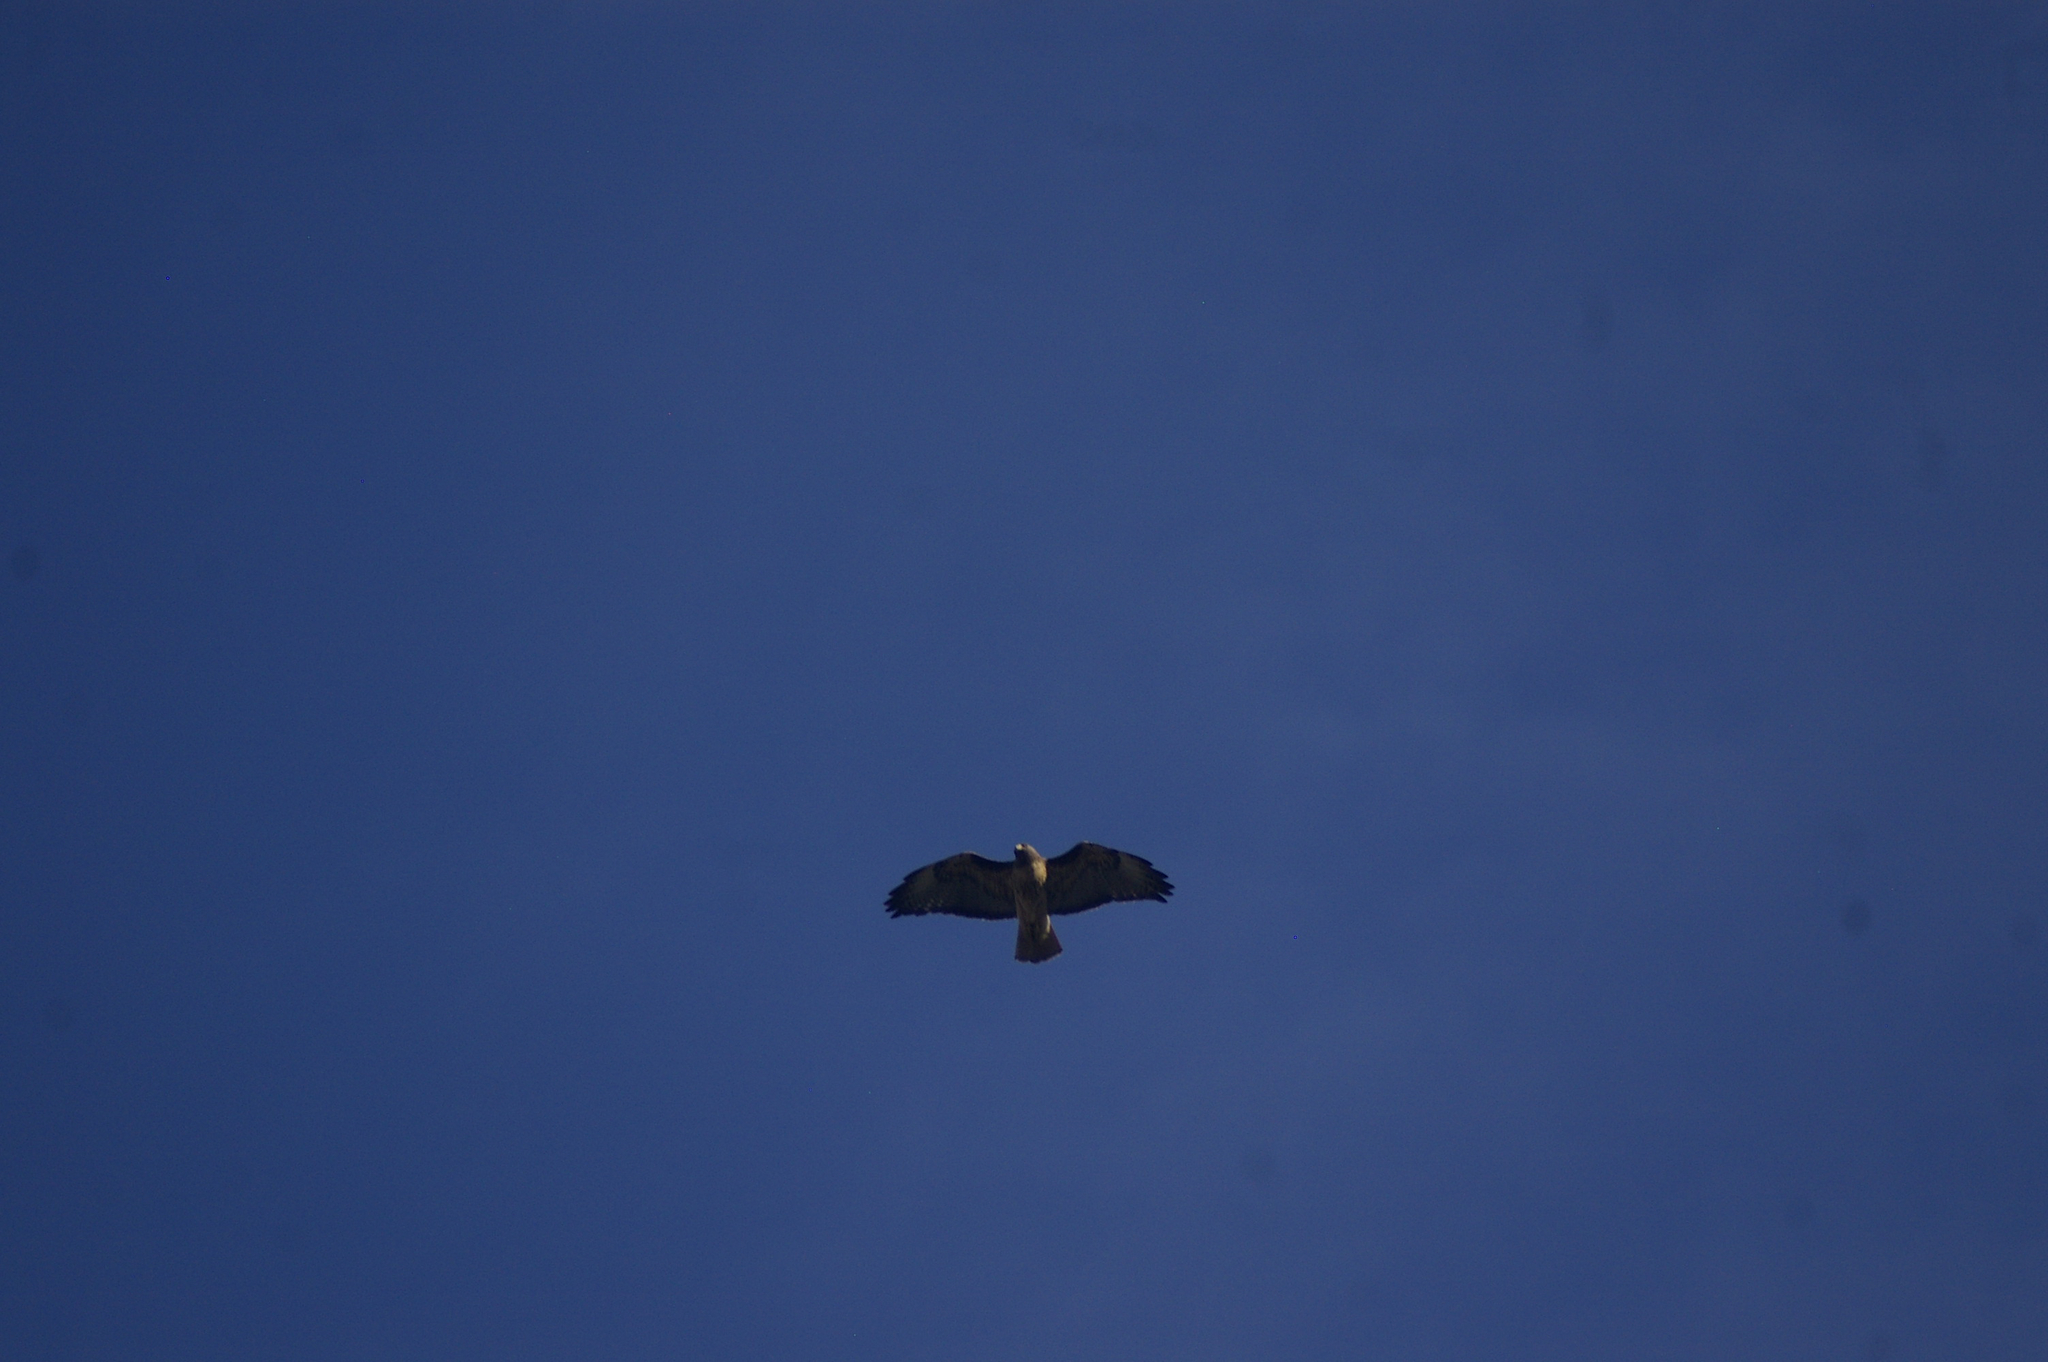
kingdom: Animalia
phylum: Chordata
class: Aves
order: Accipitriformes
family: Accipitridae
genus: Buteo
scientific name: Buteo jamaicensis
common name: Red-tailed hawk
